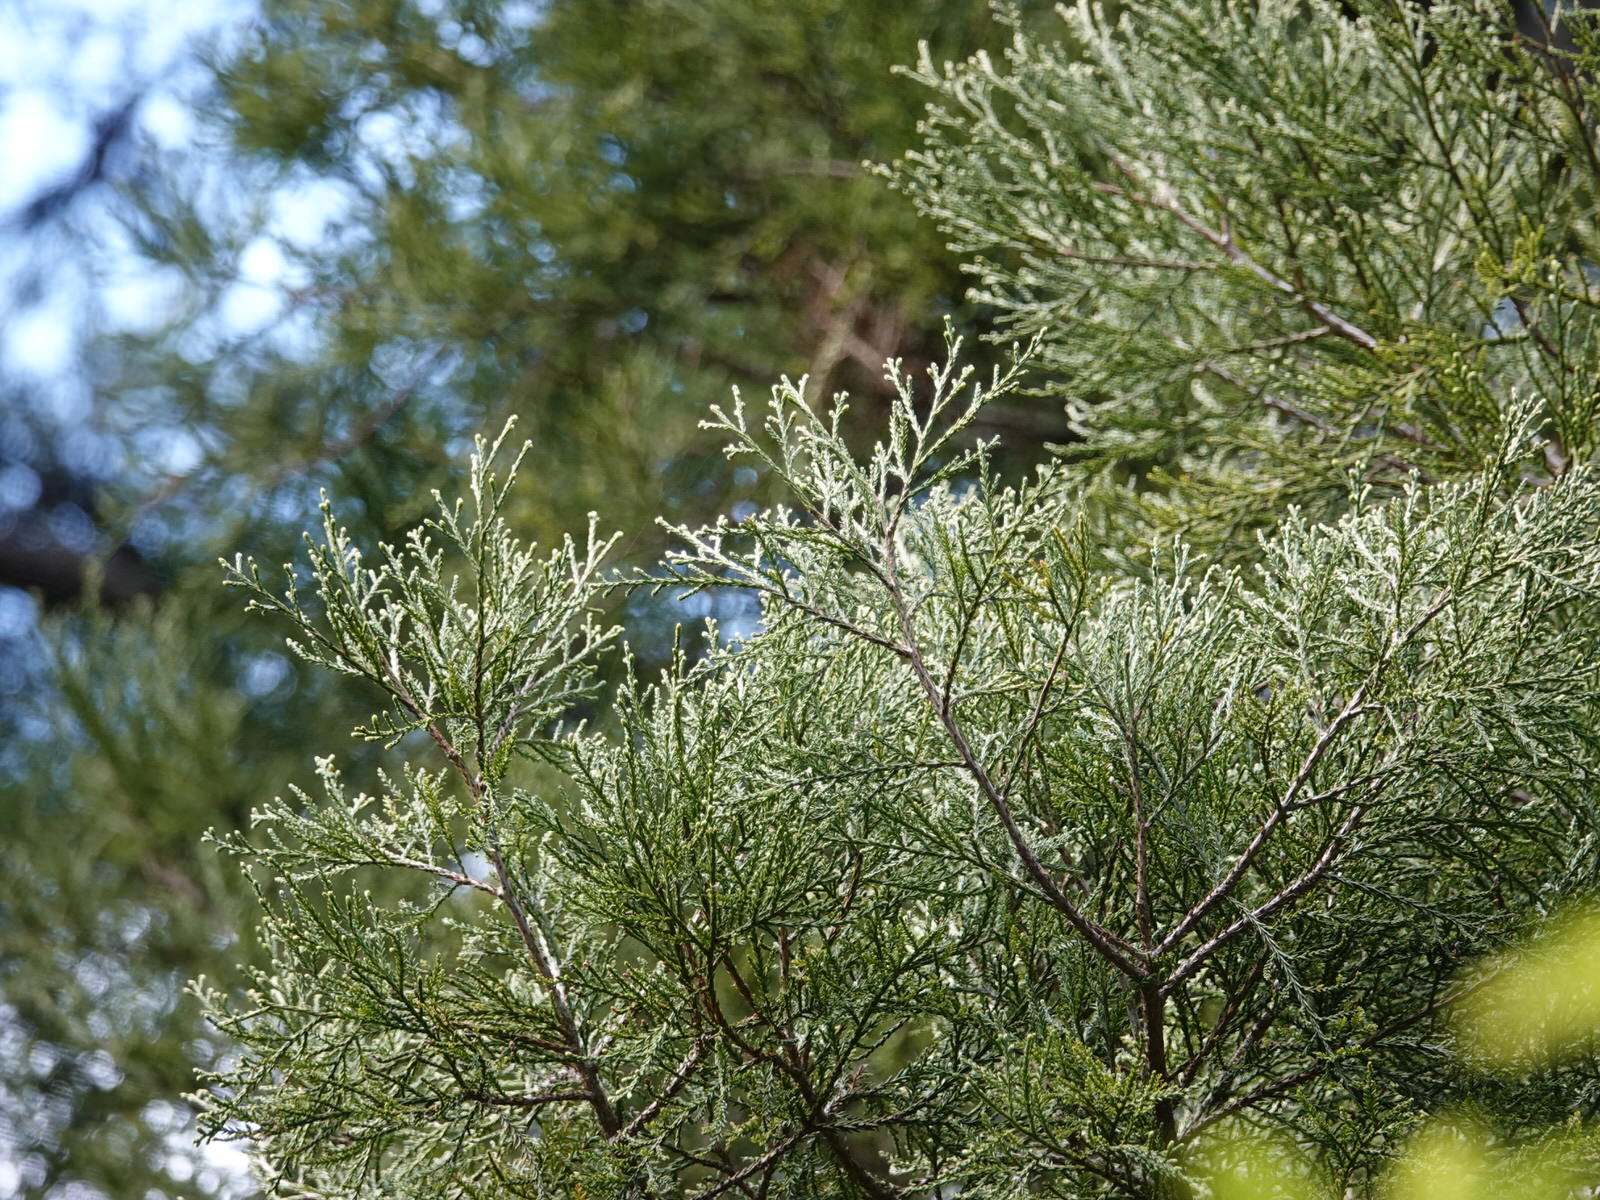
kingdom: Plantae
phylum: Tracheophyta
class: Pinopsida
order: Pinales
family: Podocarpaceae
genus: Dacrycarpus
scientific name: Dacrycarpus dacrydioides
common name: White pine
